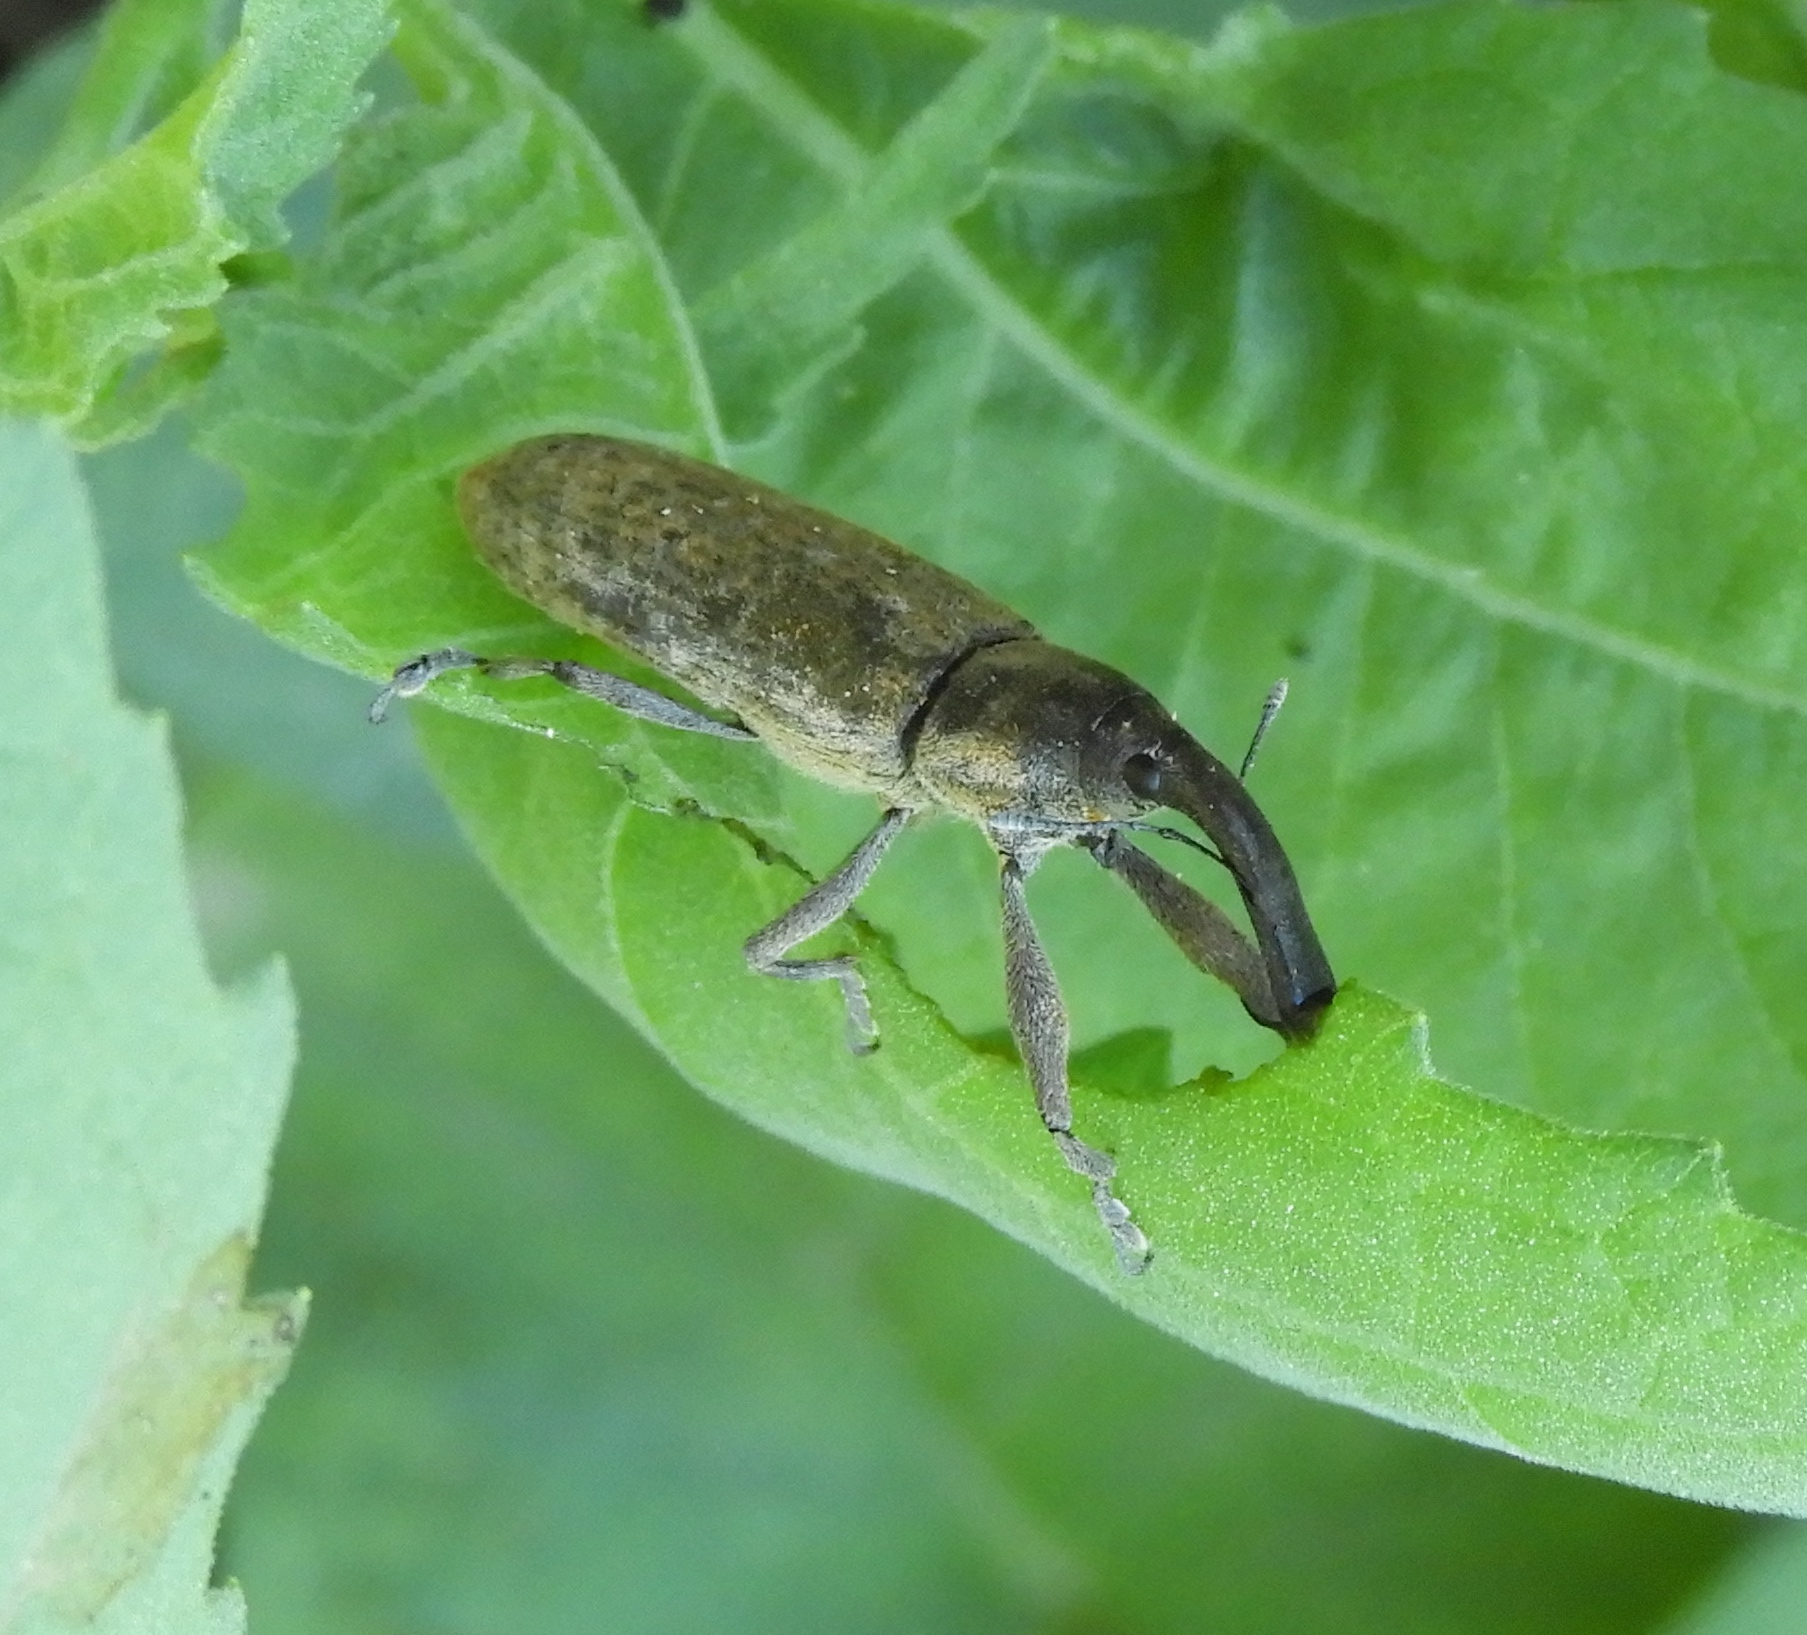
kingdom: Animalia
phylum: Arthropoda
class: Insecta
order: Coleoptera
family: Curculionidae
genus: Lixus
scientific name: Lixus
